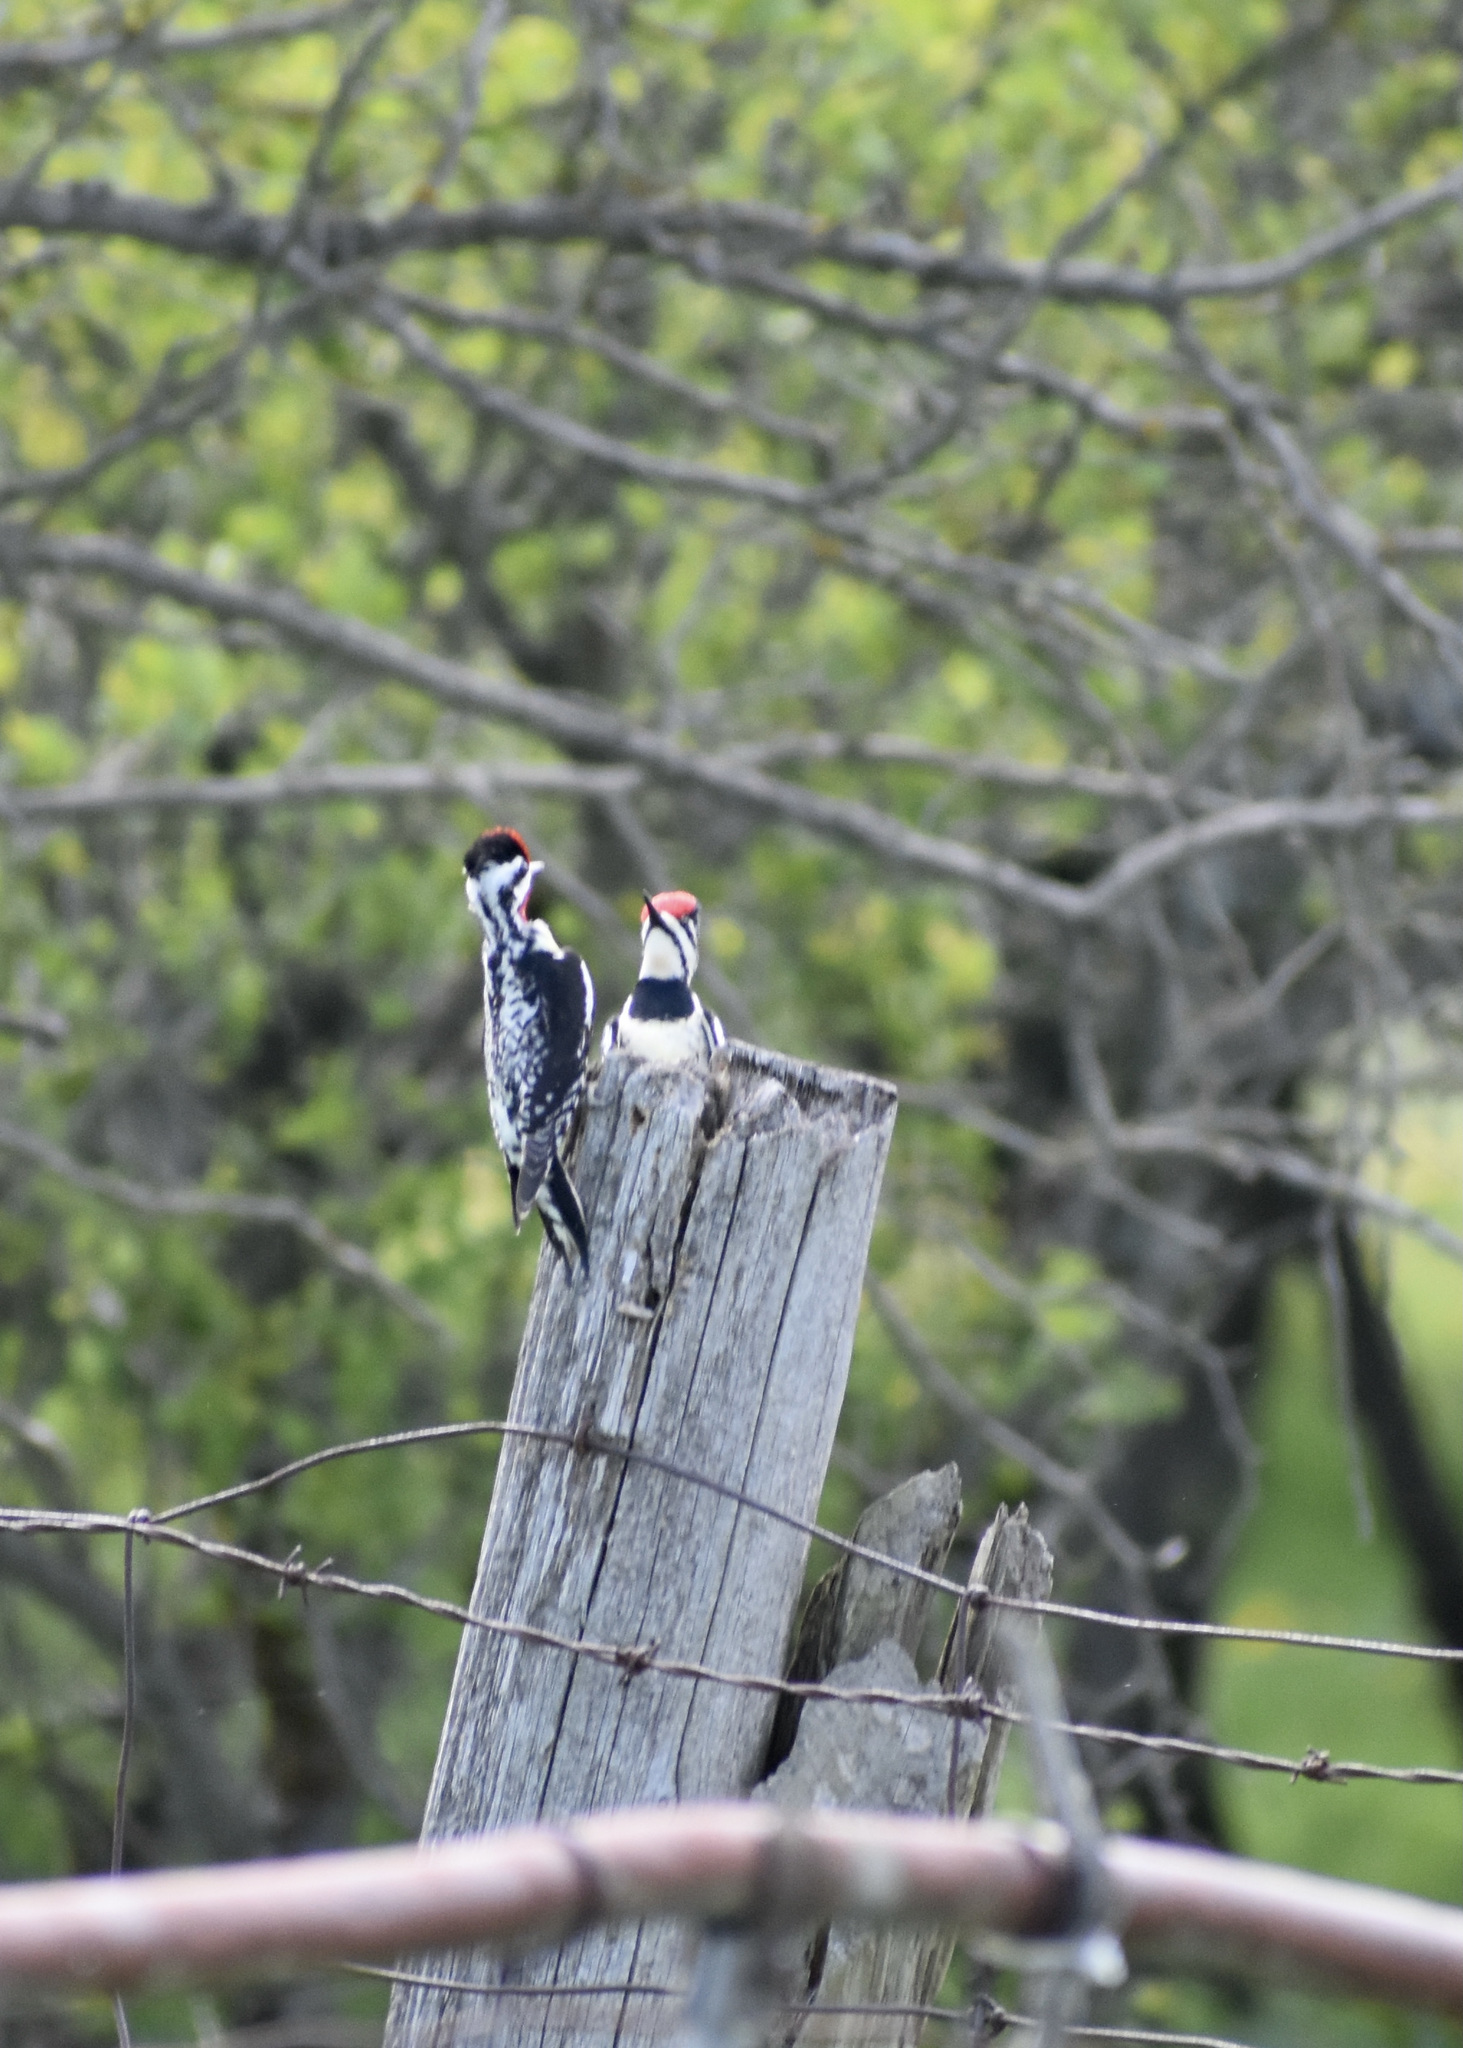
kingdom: Animalia
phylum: Chordata
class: Aves
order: Piciformes
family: Picidae
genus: Sphyrapicus
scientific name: Sphyrapicus varius
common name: Yellow-bellied sapsucker
